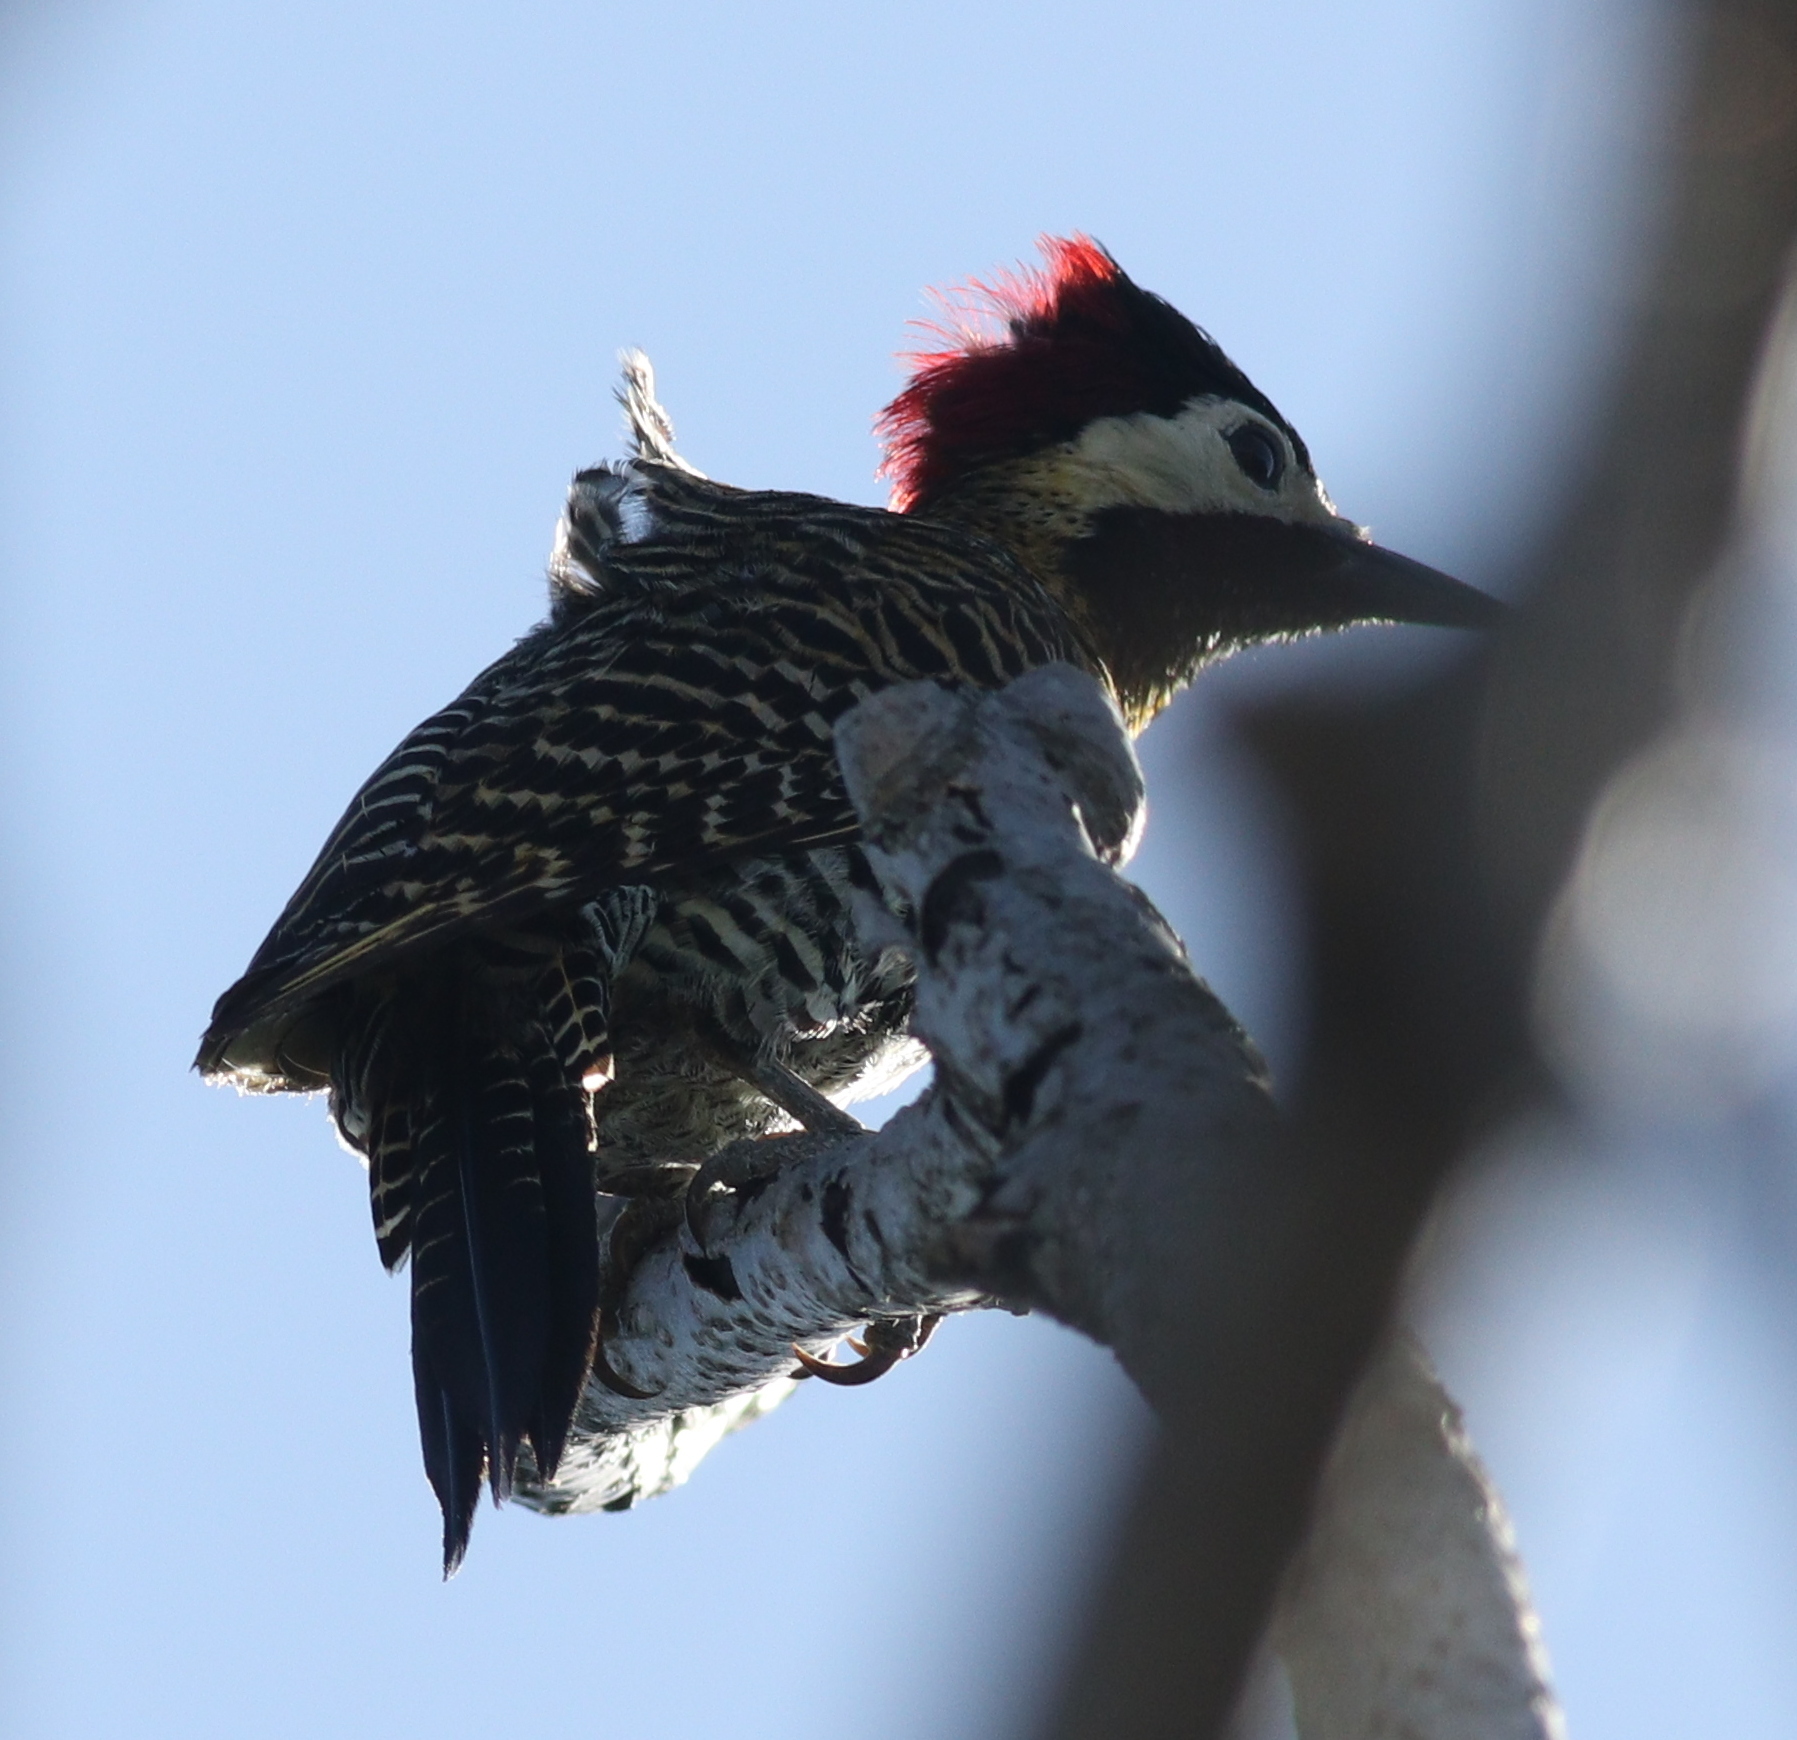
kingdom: Animalia
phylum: Chordata
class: Aves
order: Piciformes
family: Picidae
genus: Colaptes
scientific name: Colaptes melanochloros
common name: Green-barred woodpecker
